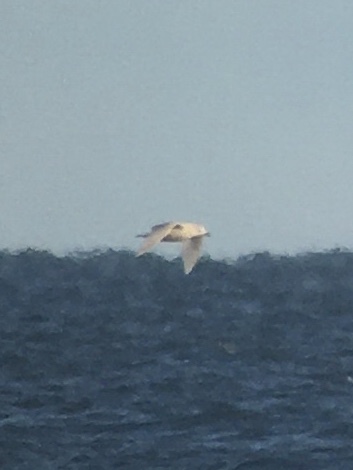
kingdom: Animalia
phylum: Chordata
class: Aves
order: Charadriiformes
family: Laridae
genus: Larus
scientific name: Larus glaucoides
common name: Iceland gull
